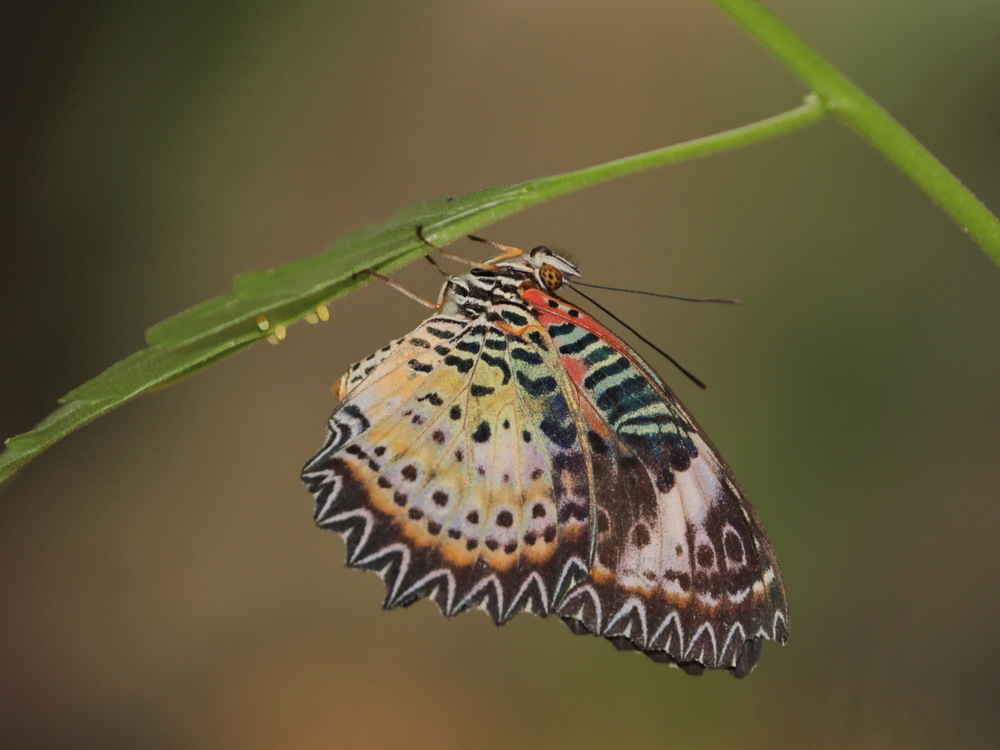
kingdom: Animalia
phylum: Arthropoda
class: Insecta
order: Lepidoptera
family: Nymphalidae
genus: Cethosia
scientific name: Cethosia cyane
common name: Leopard lacewing butterfly
